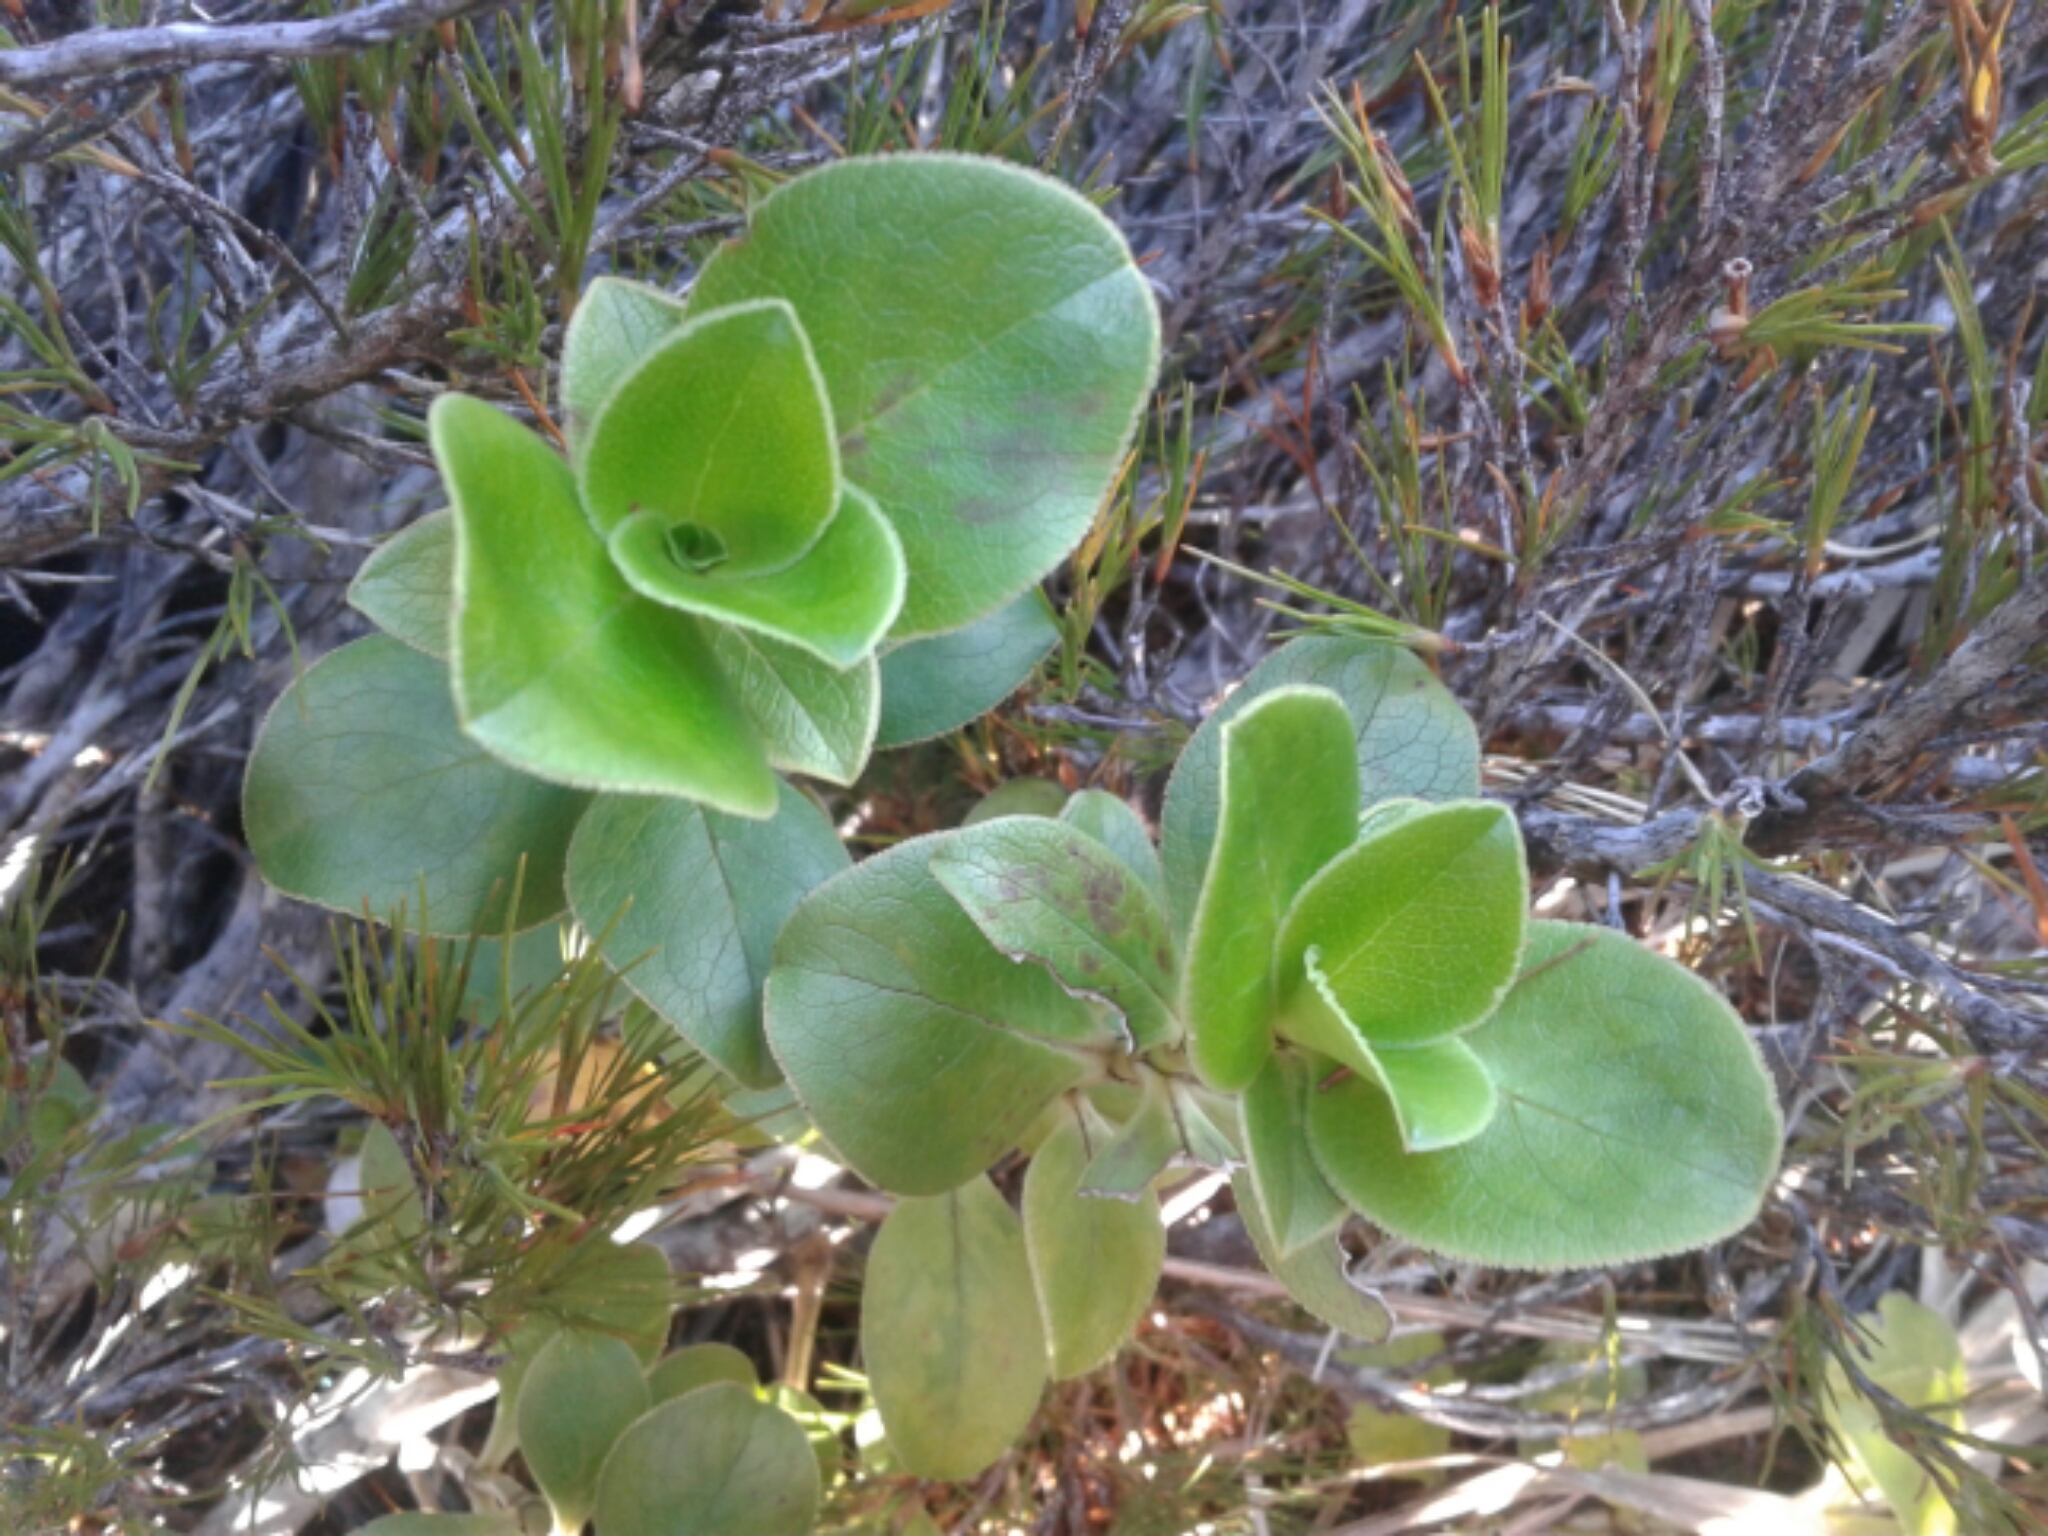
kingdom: Plantae
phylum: Tracheophyta
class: Magnoliopsida
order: Gentianales
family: Rubiaceae
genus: Coprosma
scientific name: Coprosma serrulata
